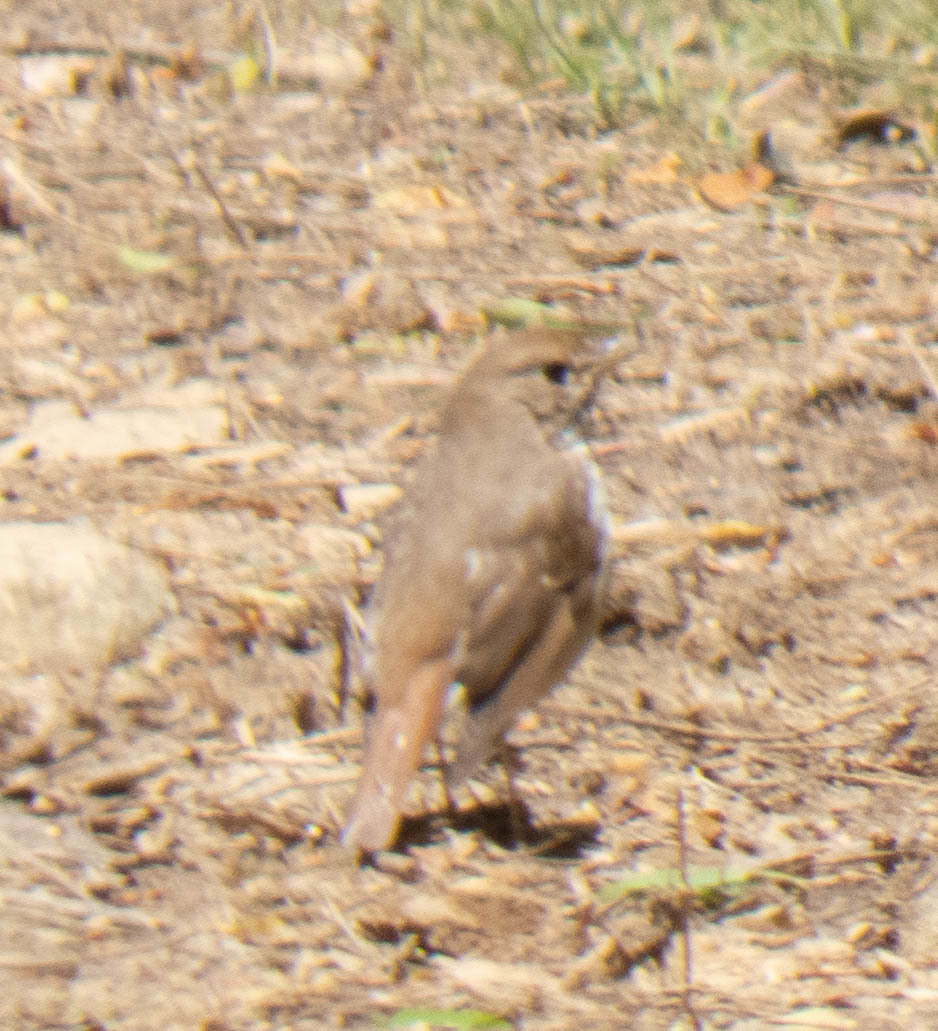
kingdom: Animalia
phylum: Chordata
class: Aves
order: Passeriformes
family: Turdidae
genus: Catharus
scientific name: Catharus guttatus
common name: Hermit thrush
